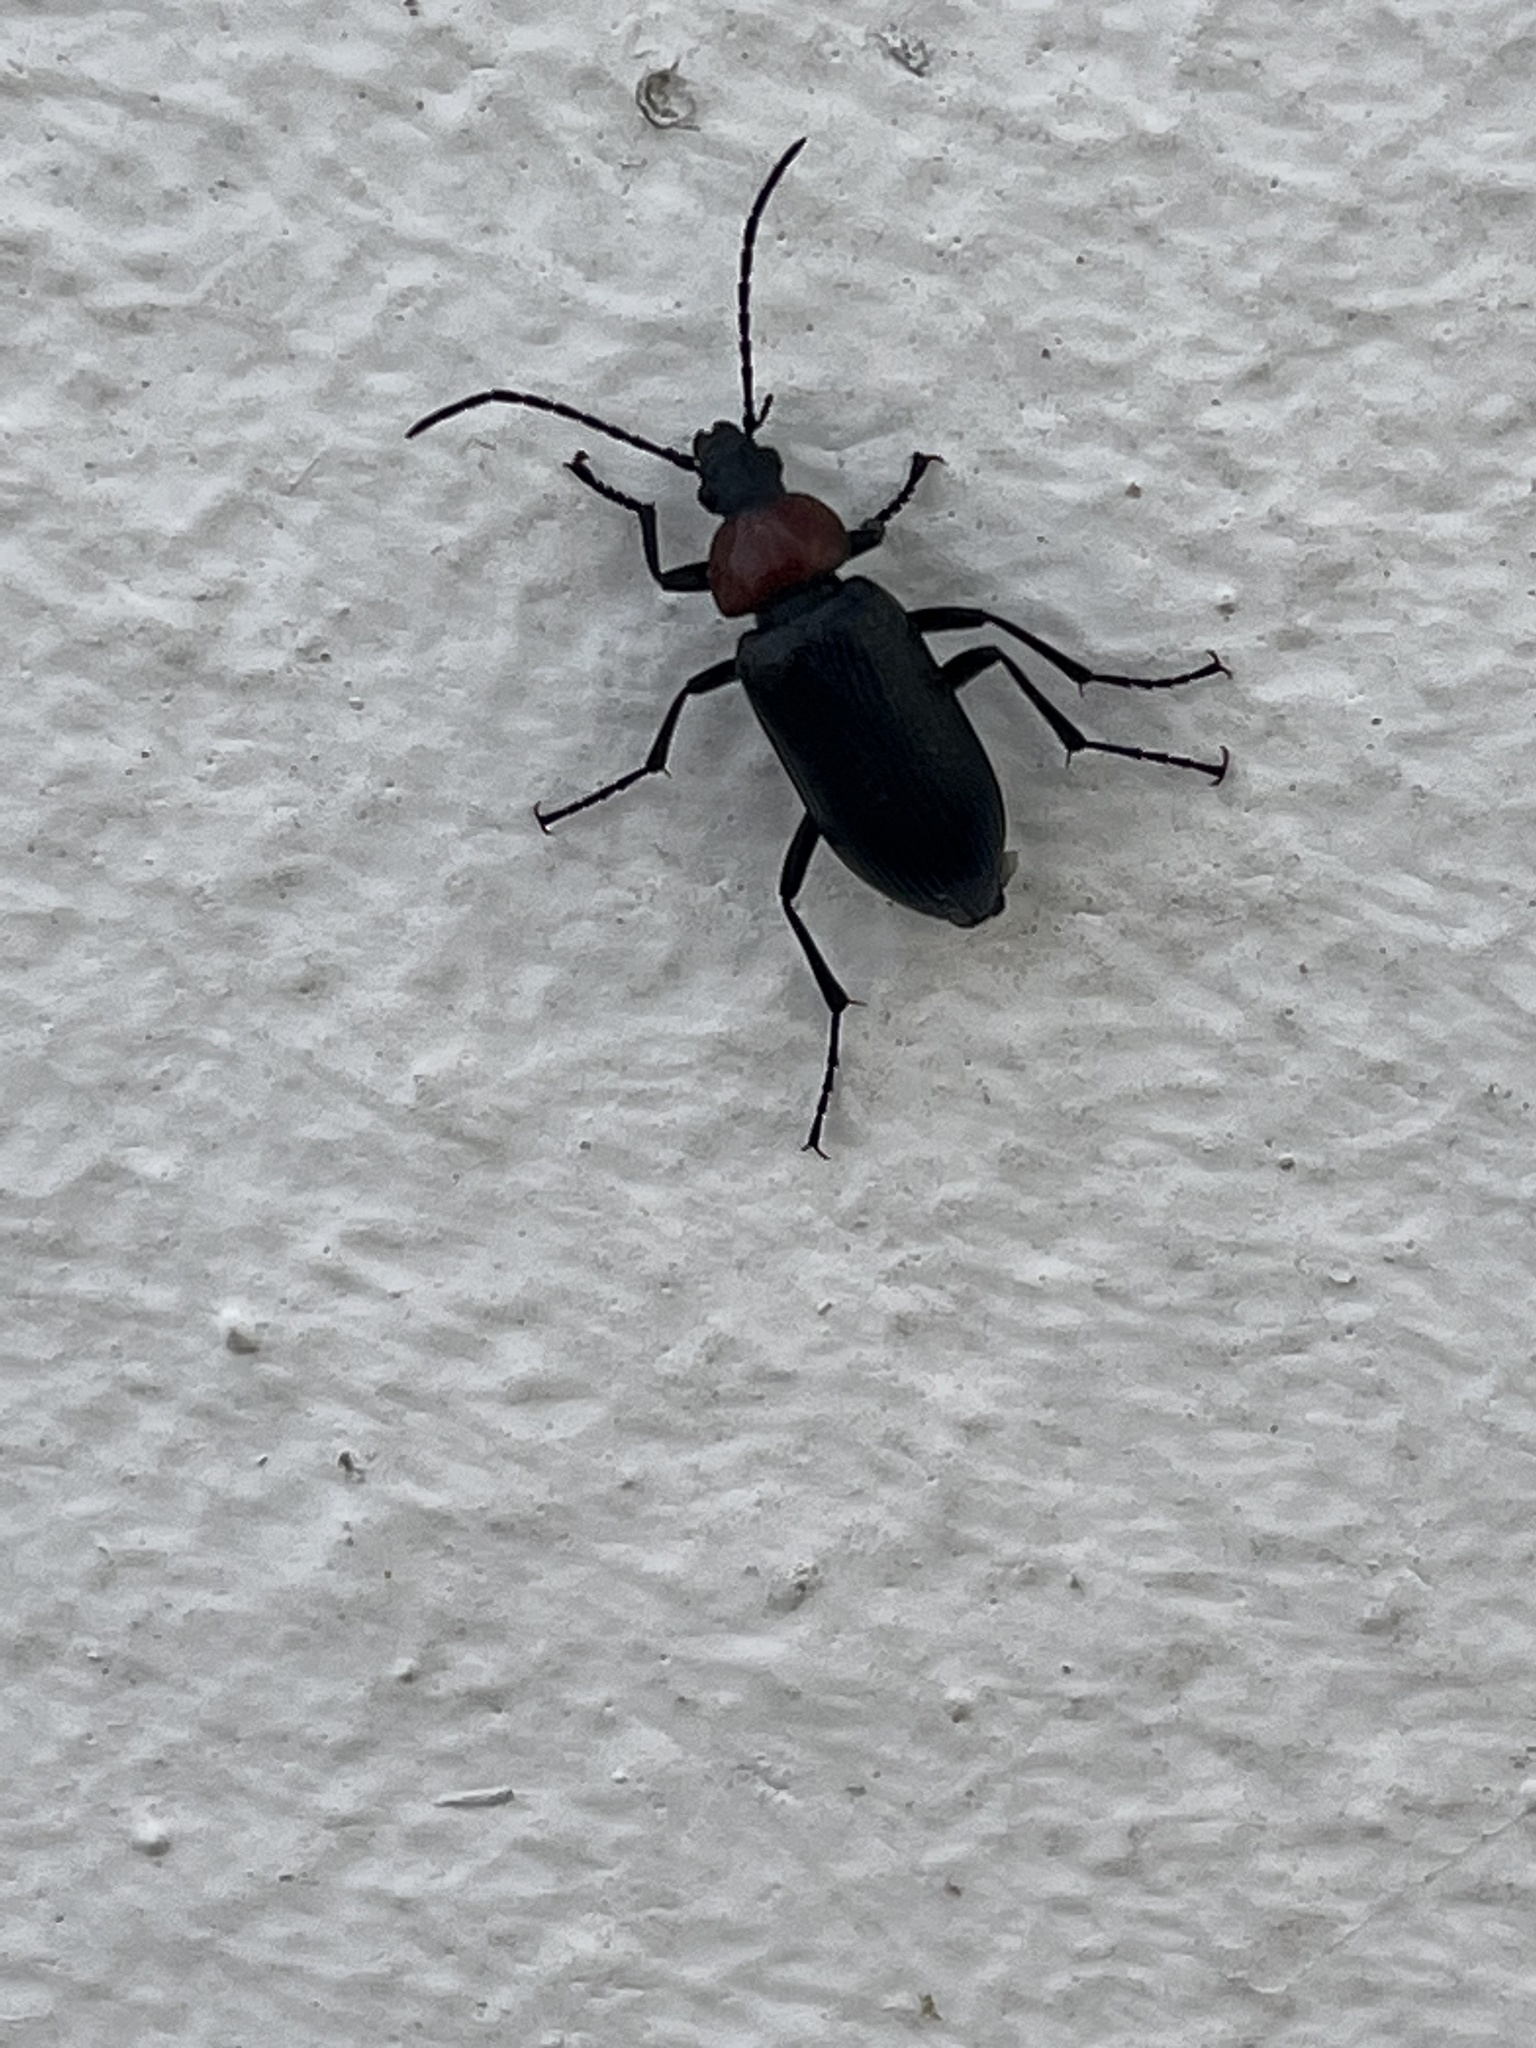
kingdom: Animalia
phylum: Arthropoda
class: Insecta
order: Coleoptera
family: Tenebrionidae
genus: Heliotaurus
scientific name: Heliotaurus ruficollis
